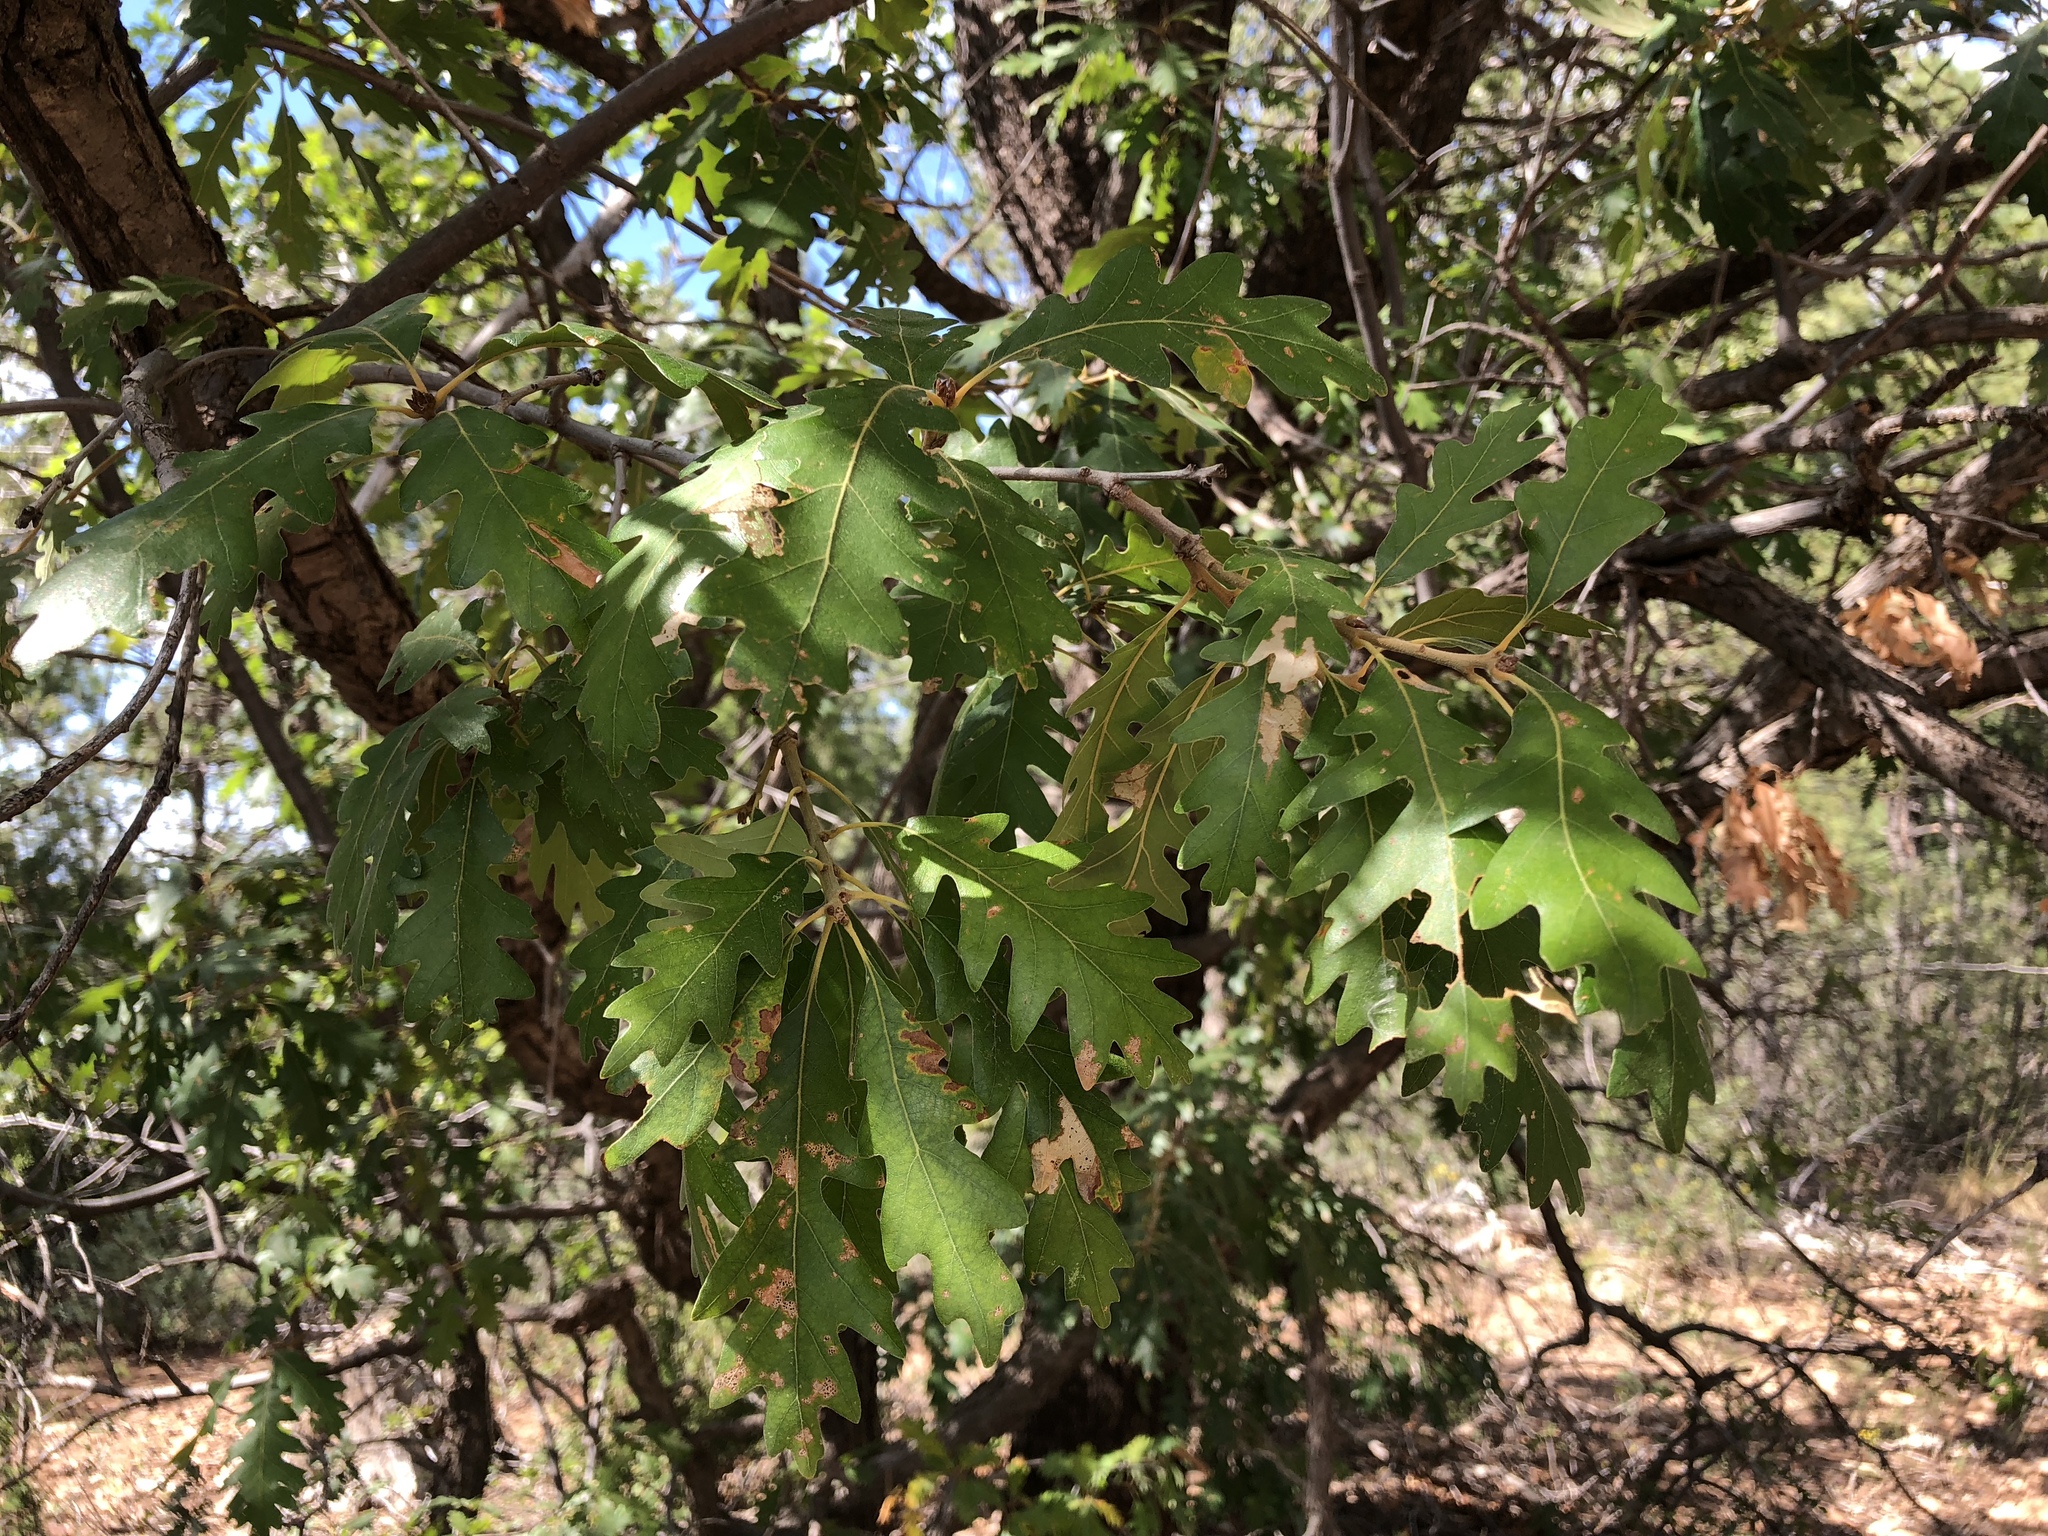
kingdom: Plantae
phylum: Tracheophyta
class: Magnoliopsida
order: Fagales
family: Fagaceae
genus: Quercus
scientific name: Quercus gambelii
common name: Gambel oak
